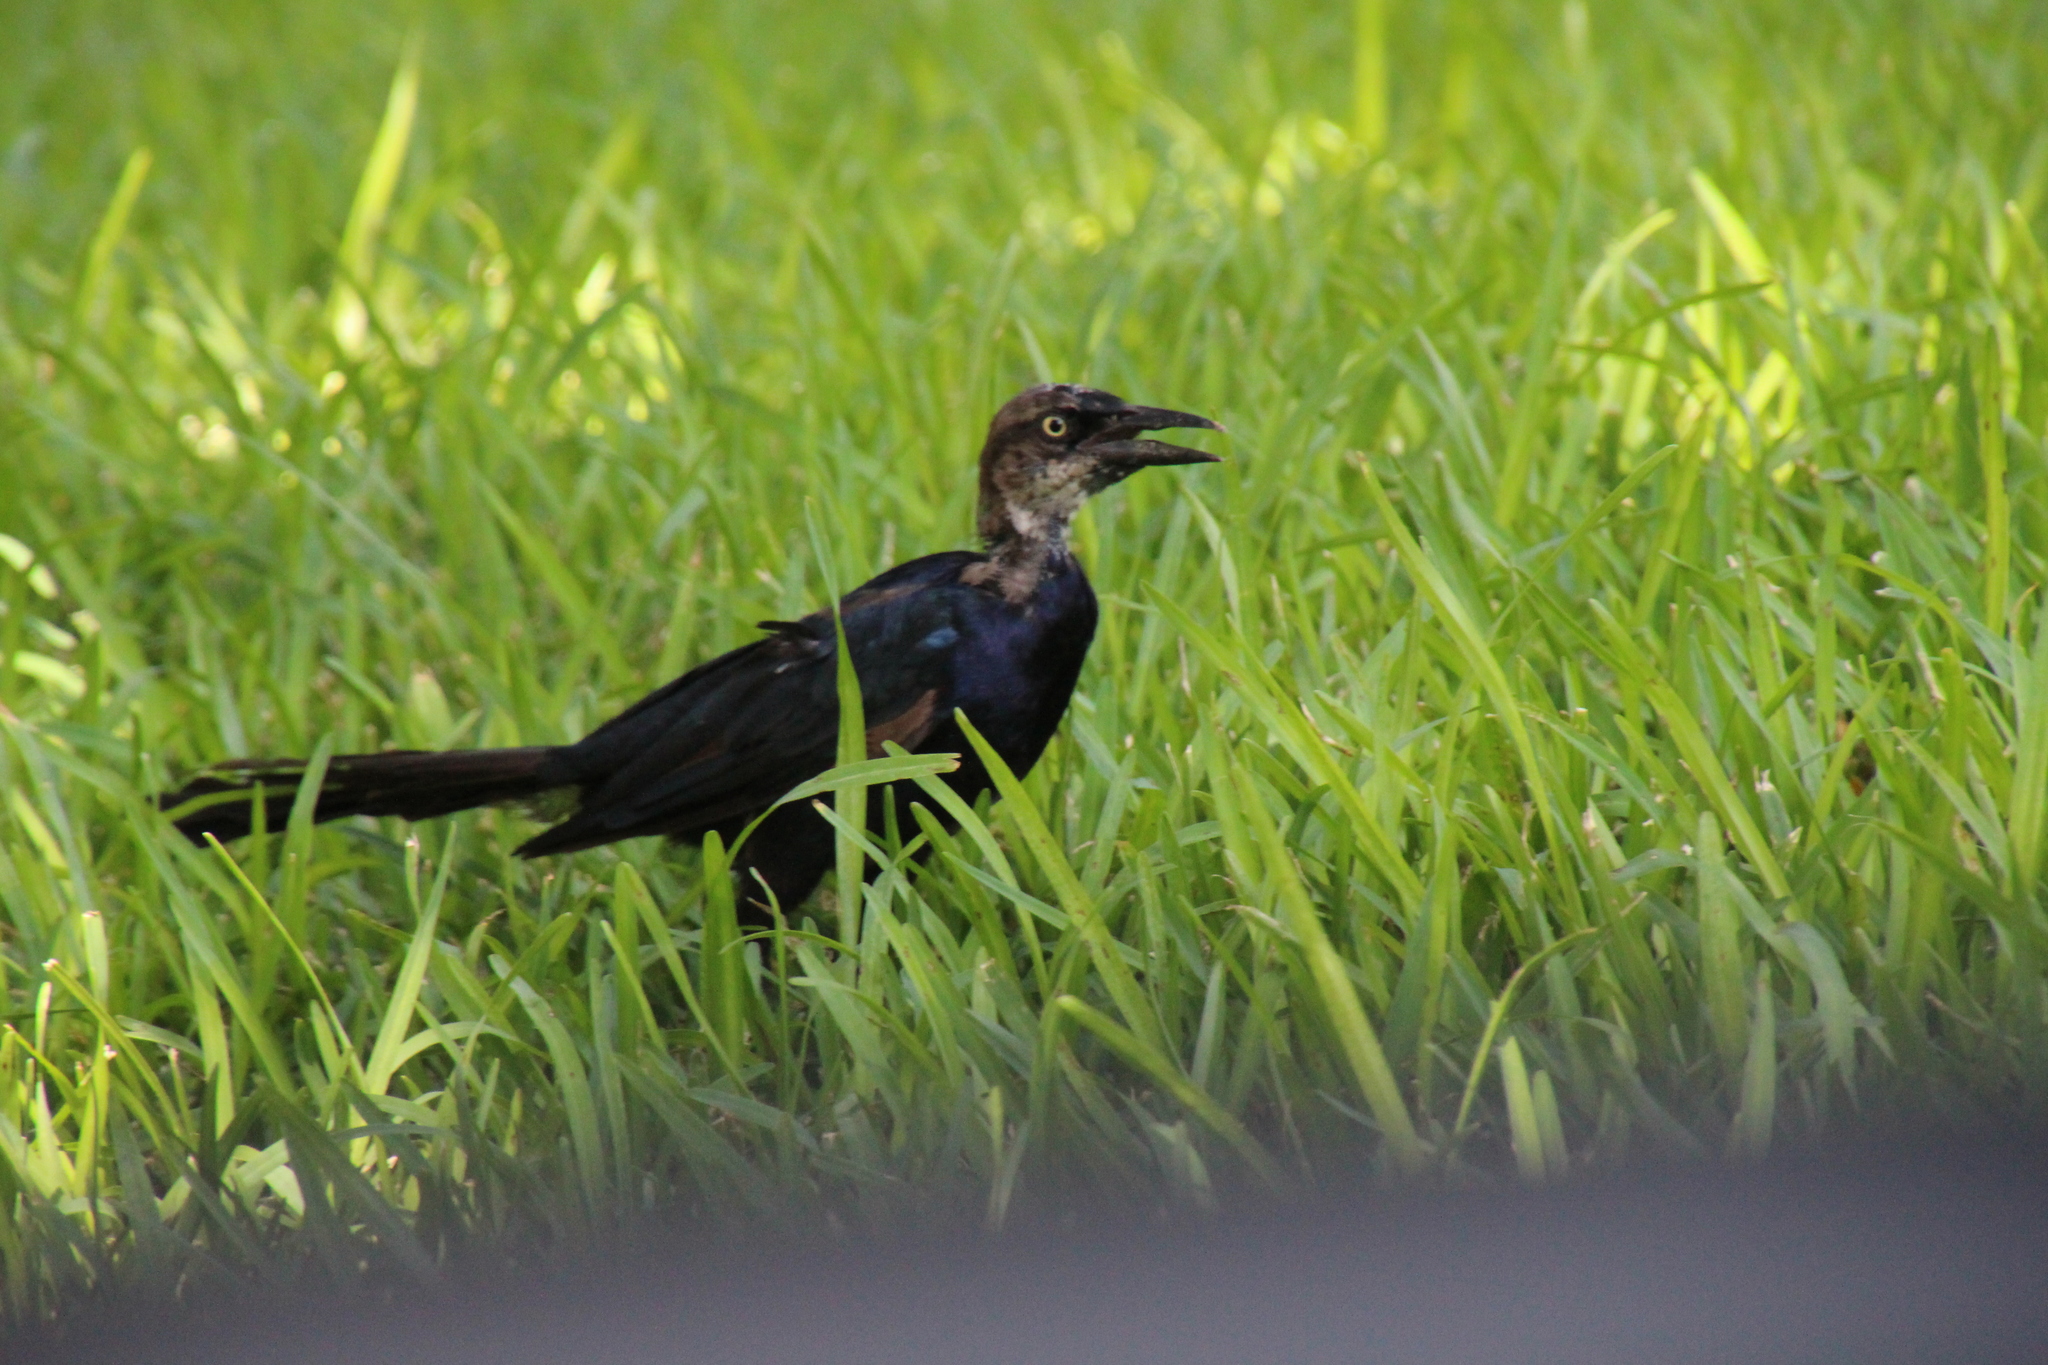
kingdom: Animalia
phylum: Chordata
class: Aves
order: Passeriformes
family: Icteridae
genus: Quiscalus
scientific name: Quiscalus mexicanus
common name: Great-tailed grackle
